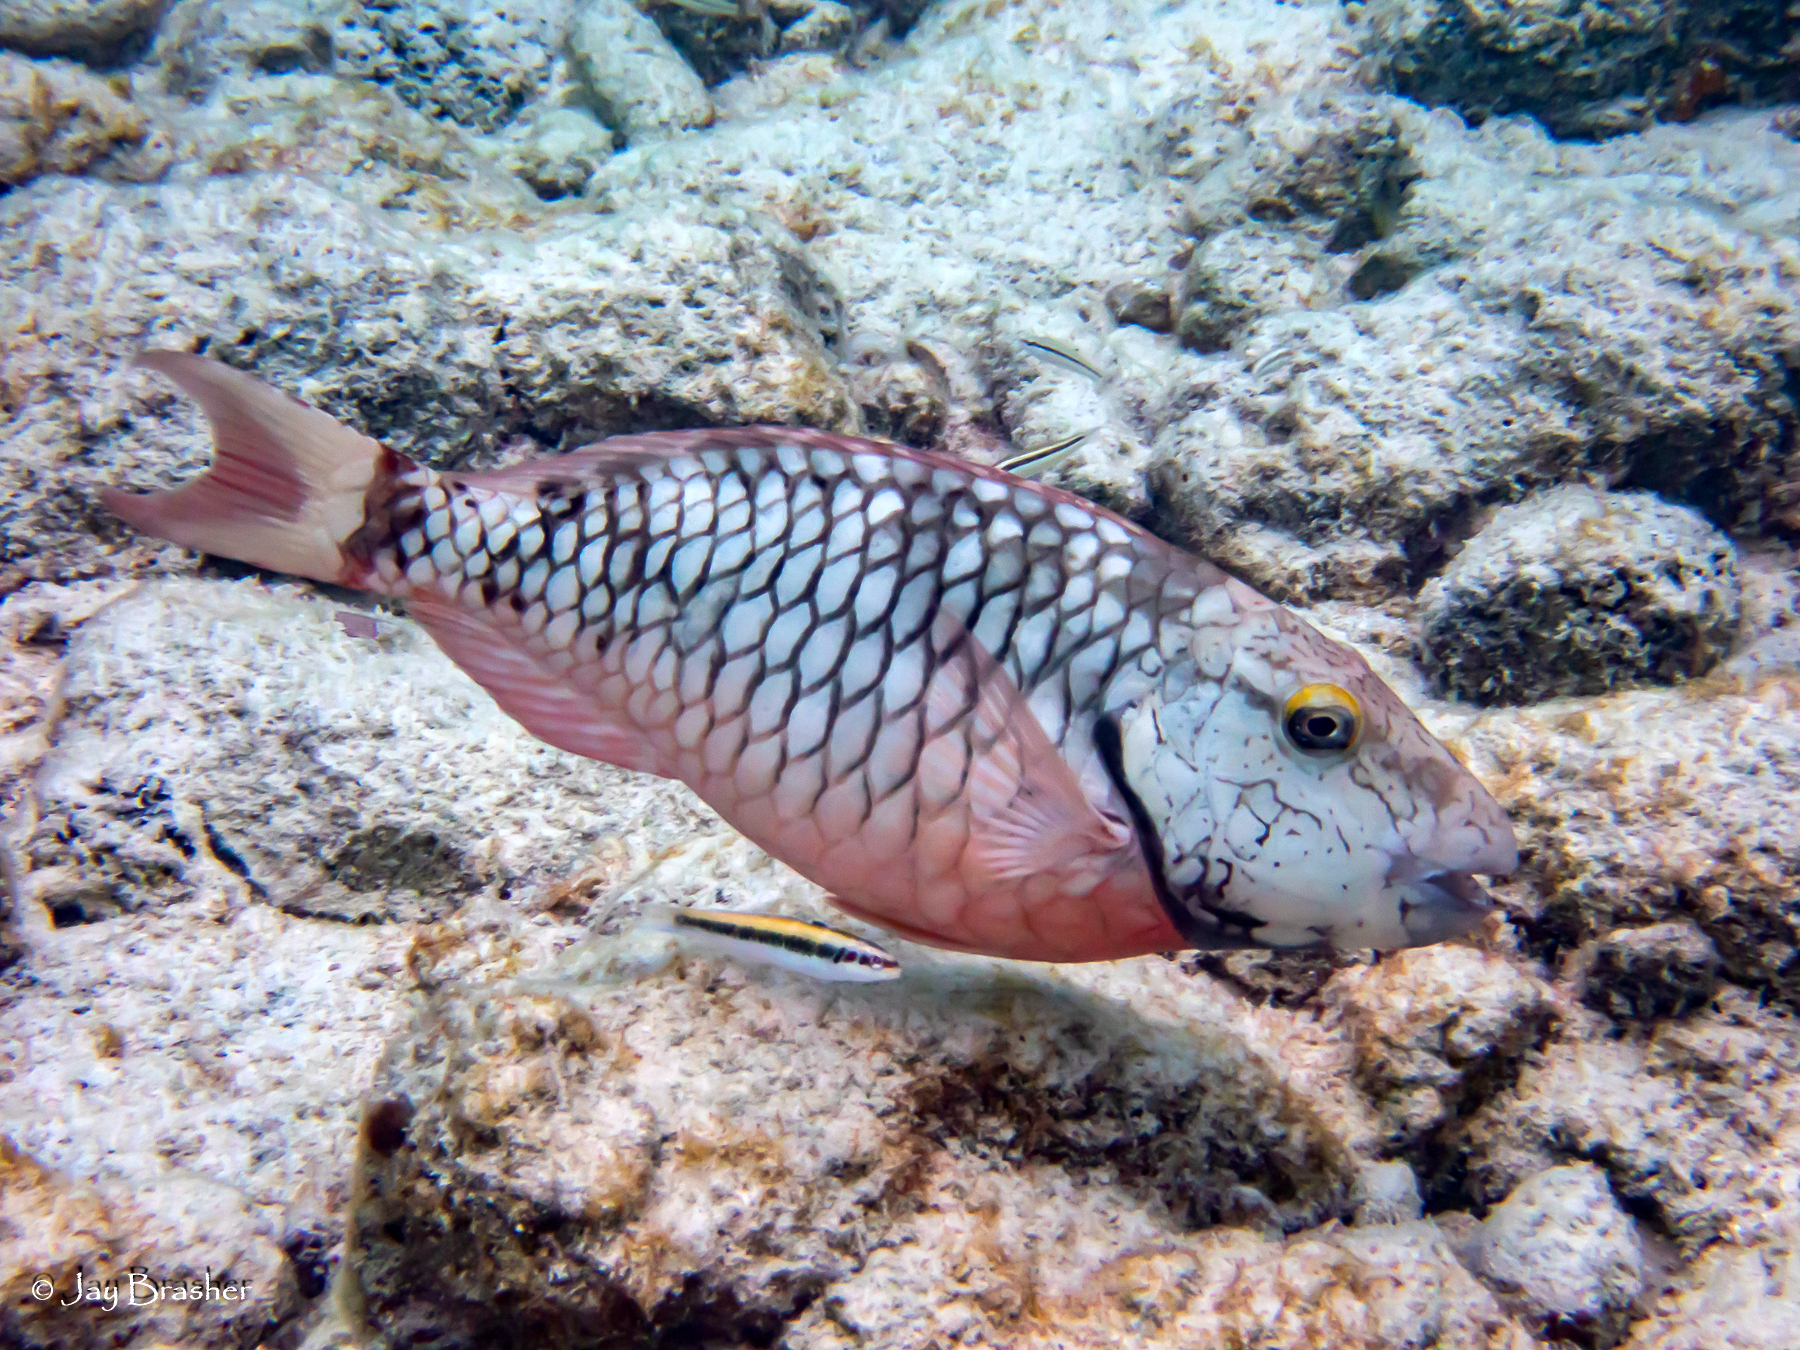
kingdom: Animalia
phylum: Chordata
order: Perciformes
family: Scaridae
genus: Sparisoma
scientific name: Sparisoma viride
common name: Stoplight parrotfish
